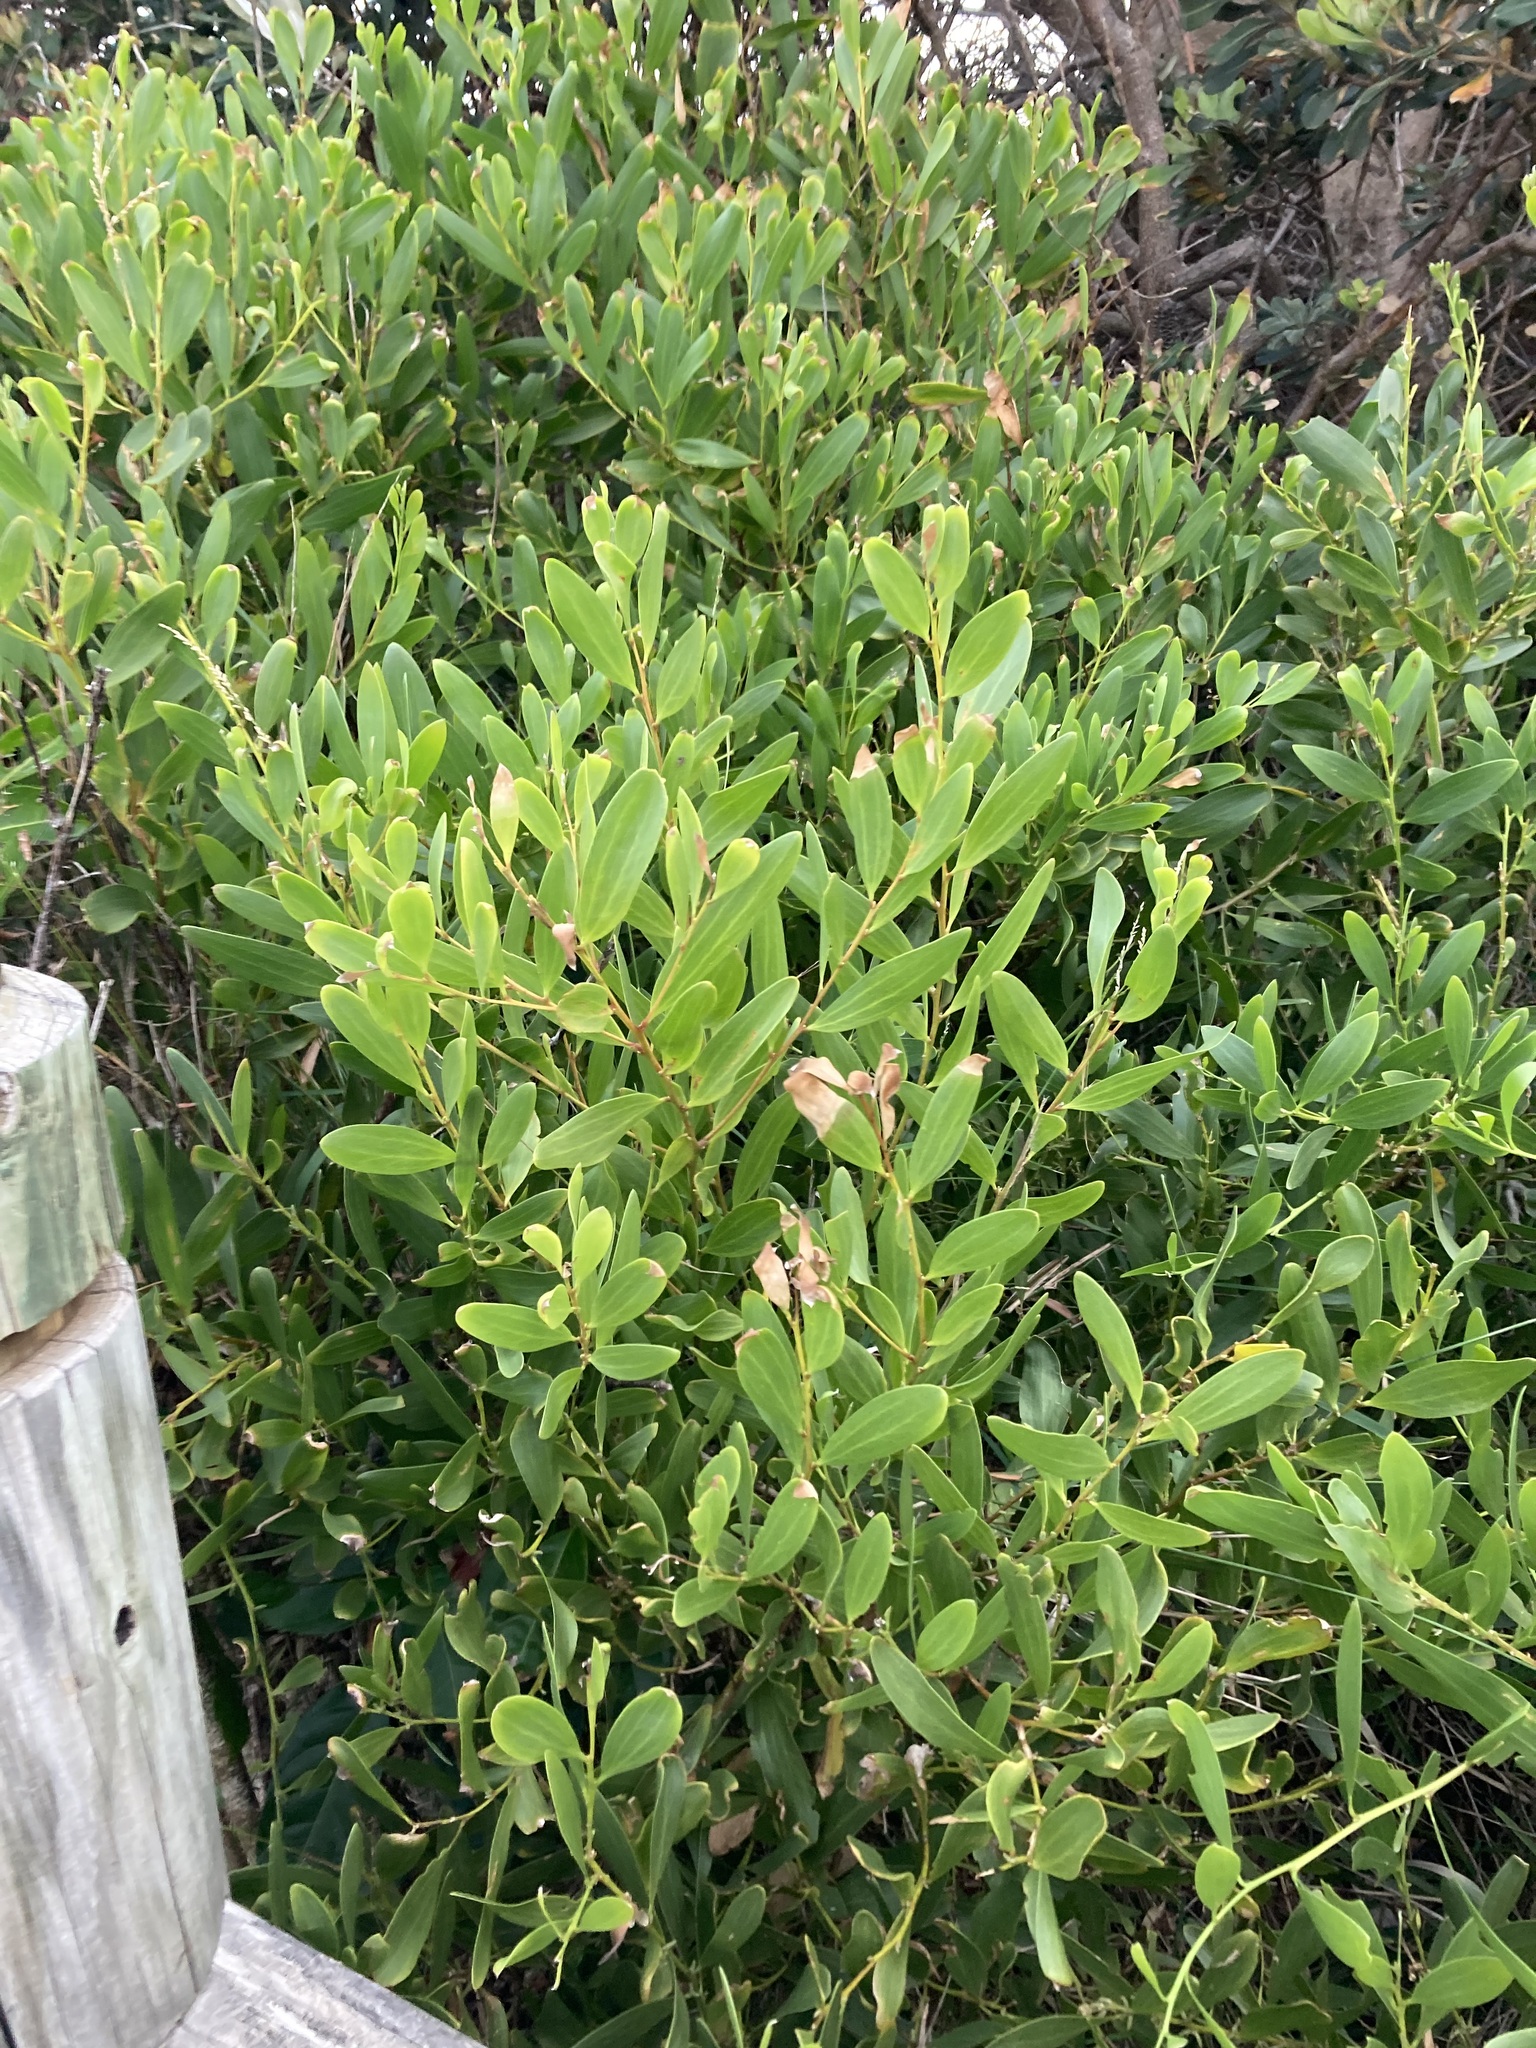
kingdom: Plantae
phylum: Tracheophyta
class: Magnoliopsida
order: Fabales
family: Fabaceae
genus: Acacia
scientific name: Acacia longifolia
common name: Sydney golden wattle
